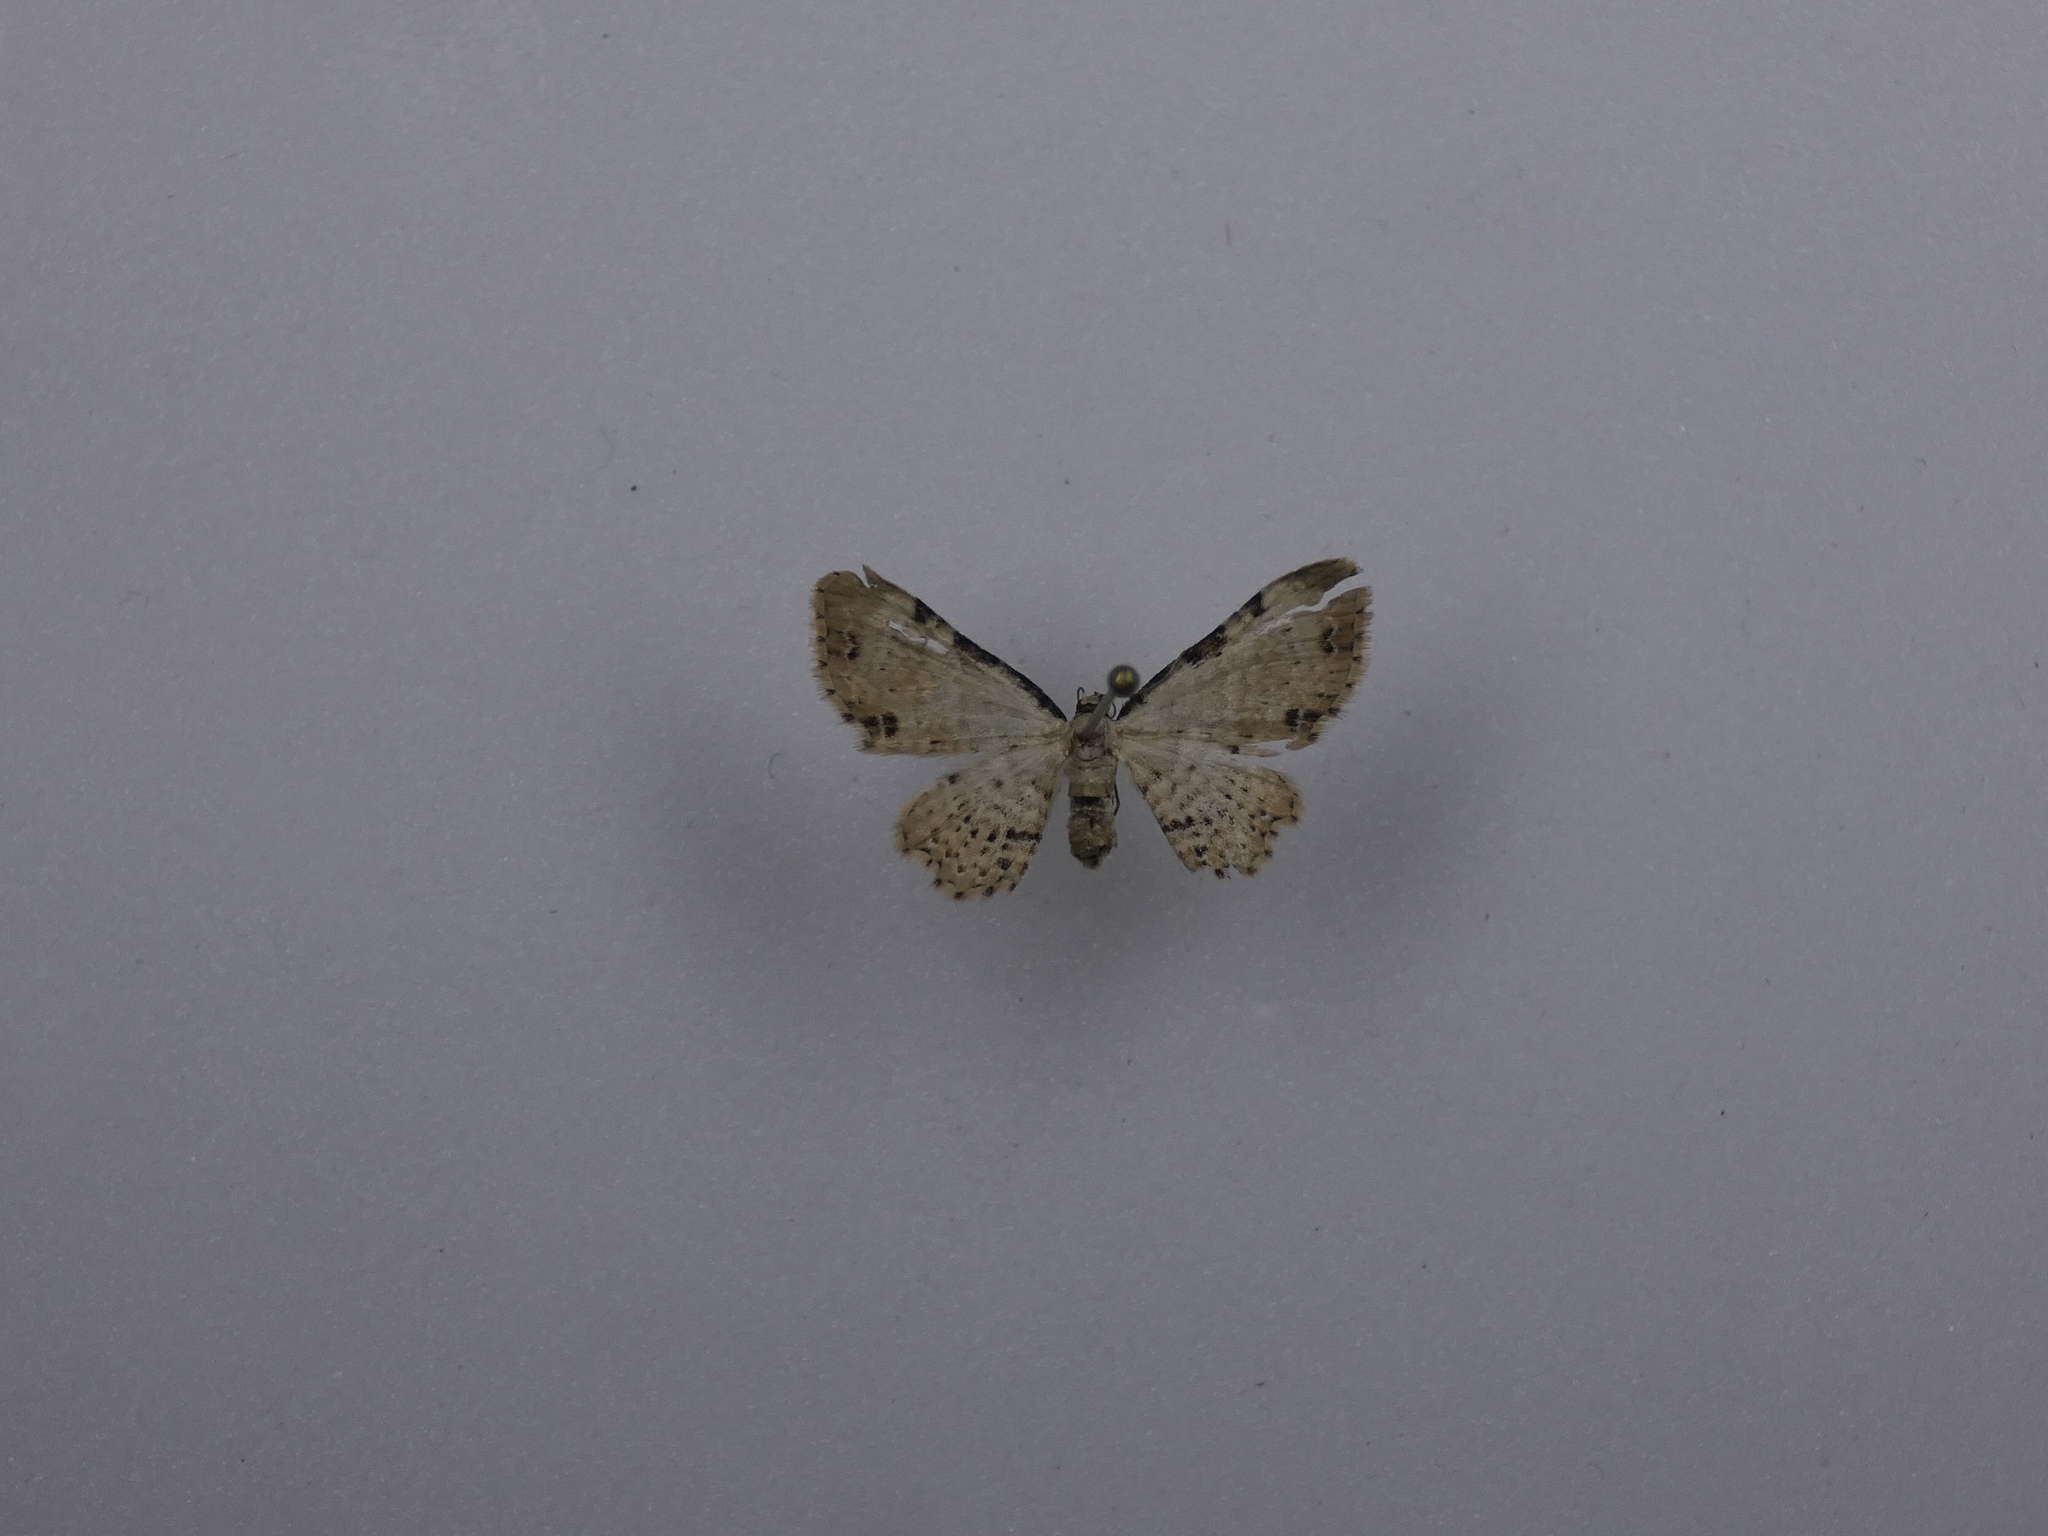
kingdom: Animalia
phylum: Arthropoda
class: Insecta
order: Lepidoptera
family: Geometridae
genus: Pasiphila
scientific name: Pasiphila fumipalpata
